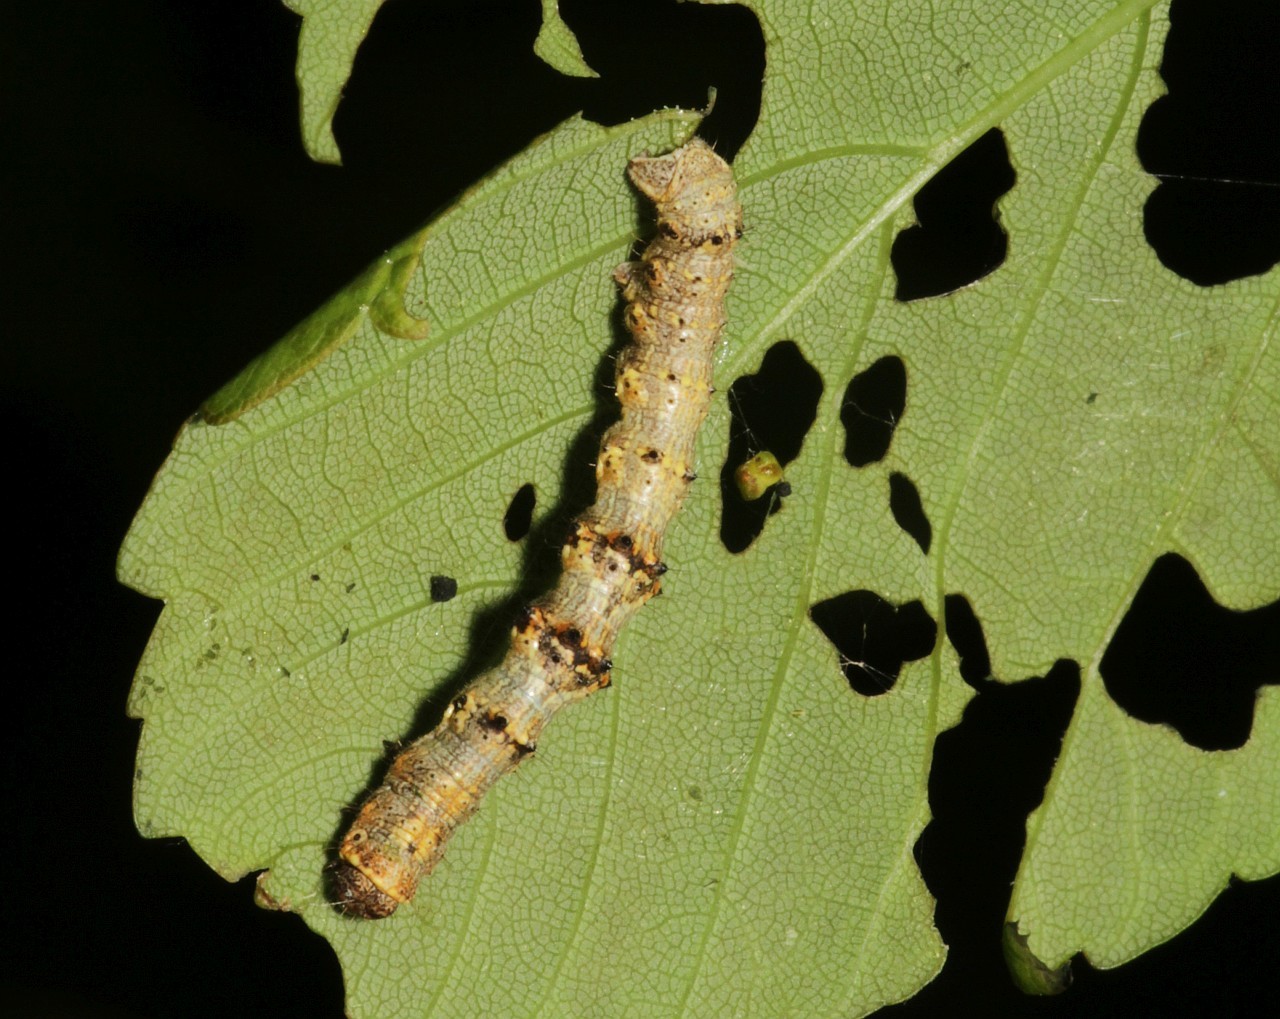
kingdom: Animalia
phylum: Arthropoda
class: Insecta
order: Lepidoptera
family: Geometridae
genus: Phigalia
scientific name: Phigalia pilosaria
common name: Pale brindled beauty
